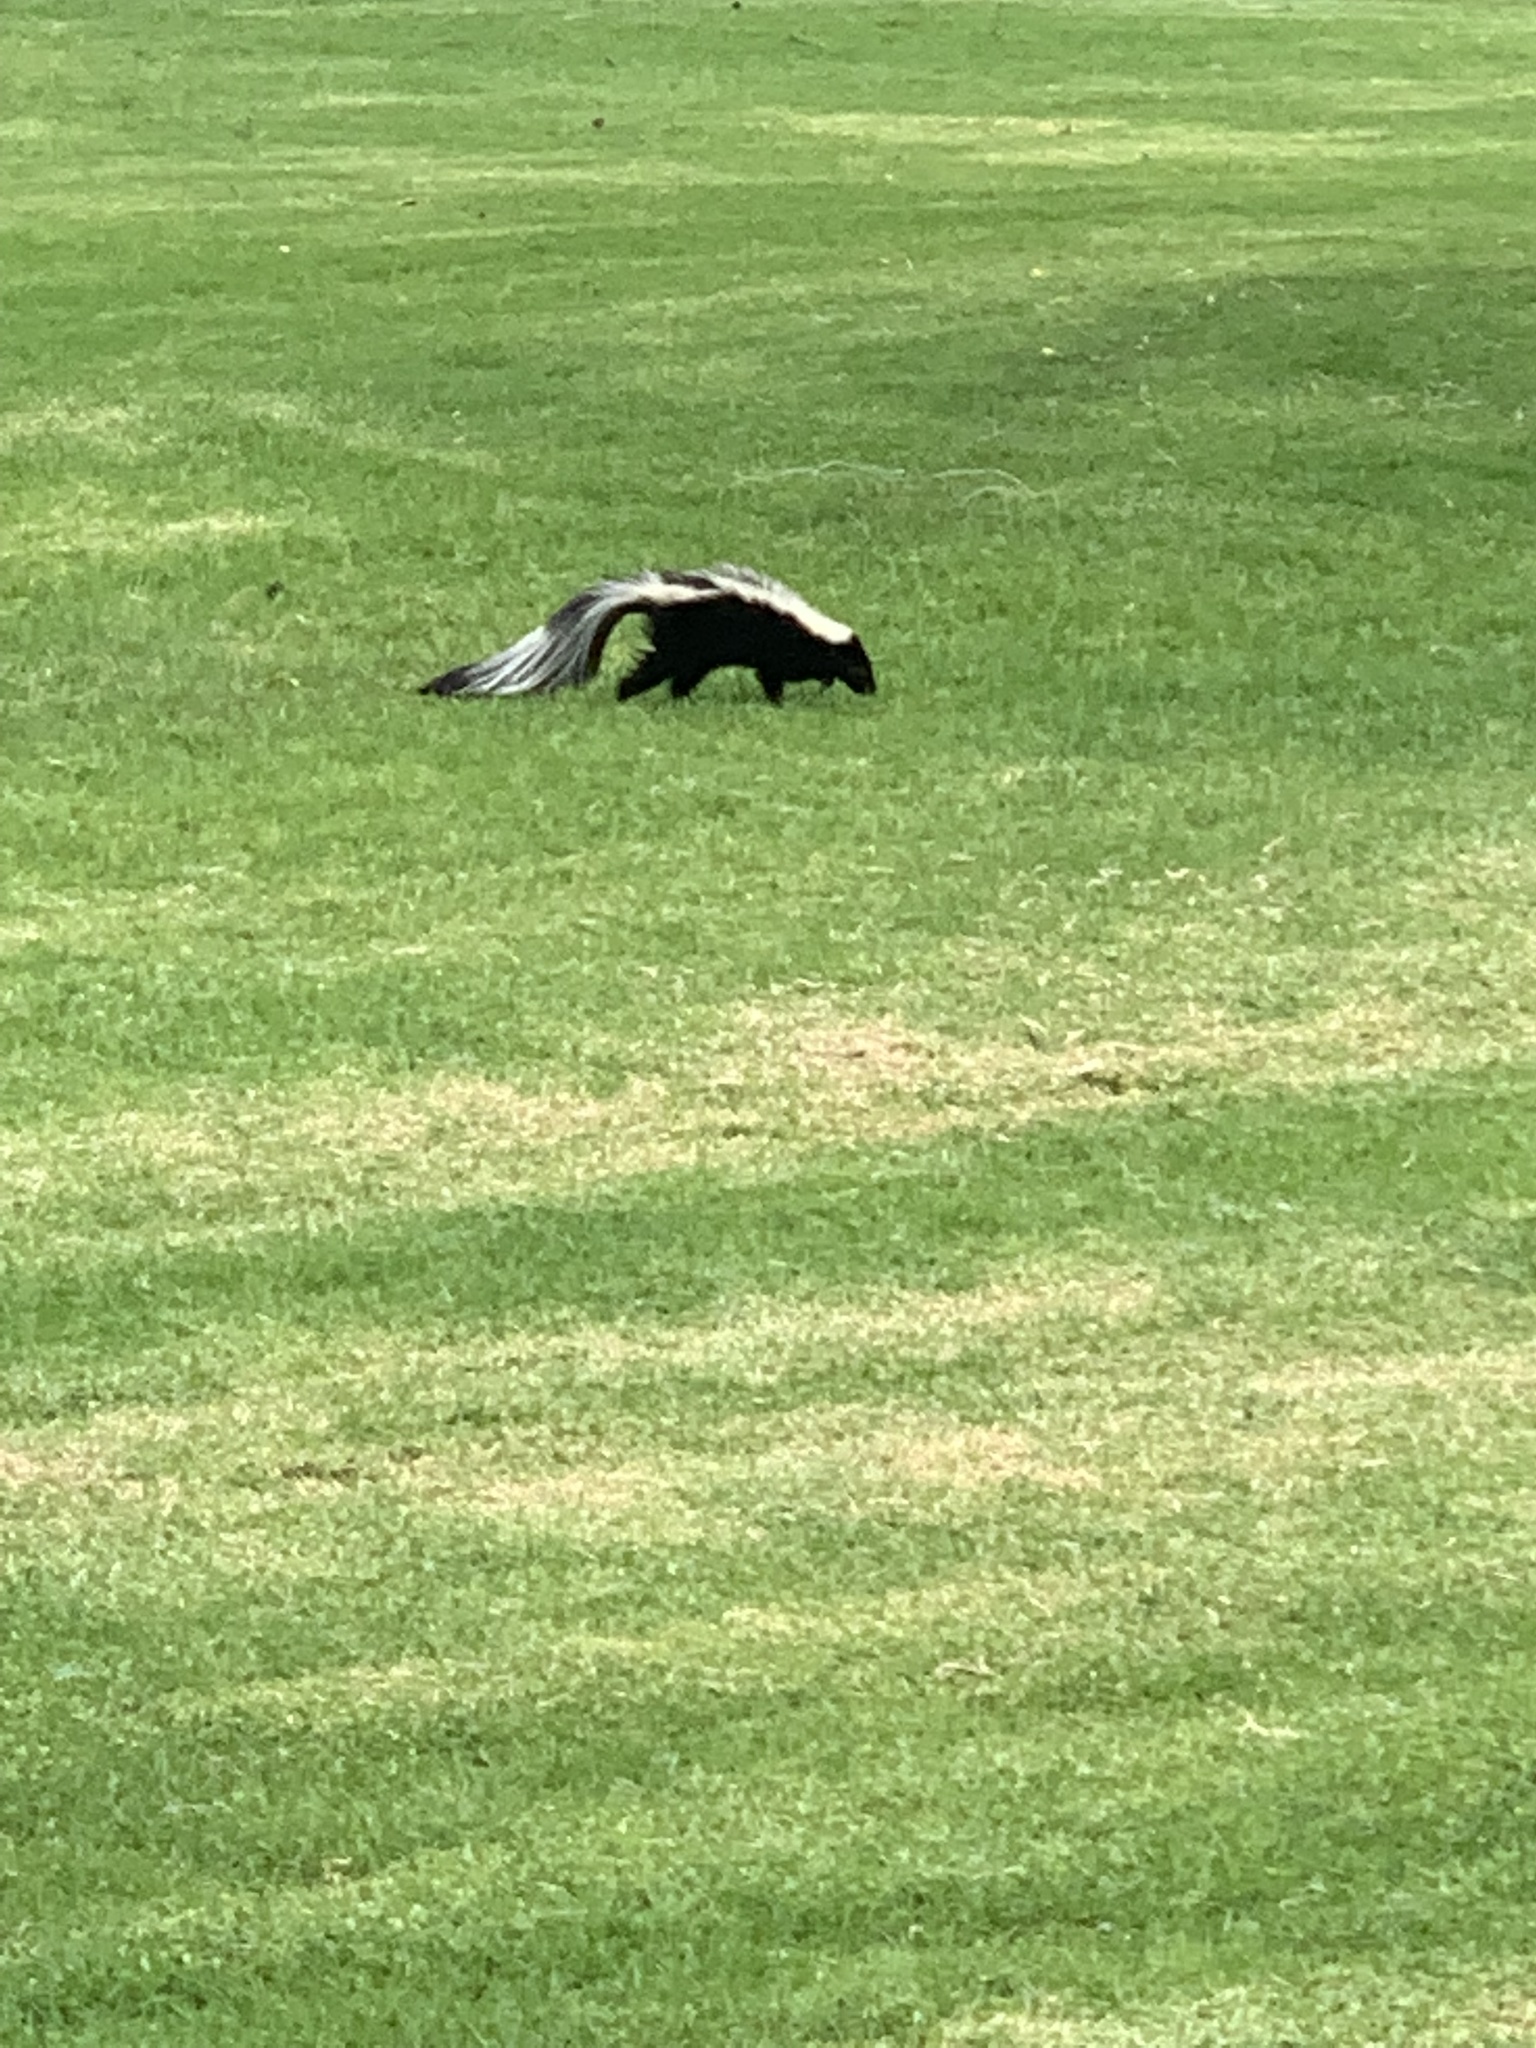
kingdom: Animalia
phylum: Chordata
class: Mammalia
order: Carnivora
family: Mephitidae
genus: Mephitis
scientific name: Mephitis mephitis
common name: Striped skunk
